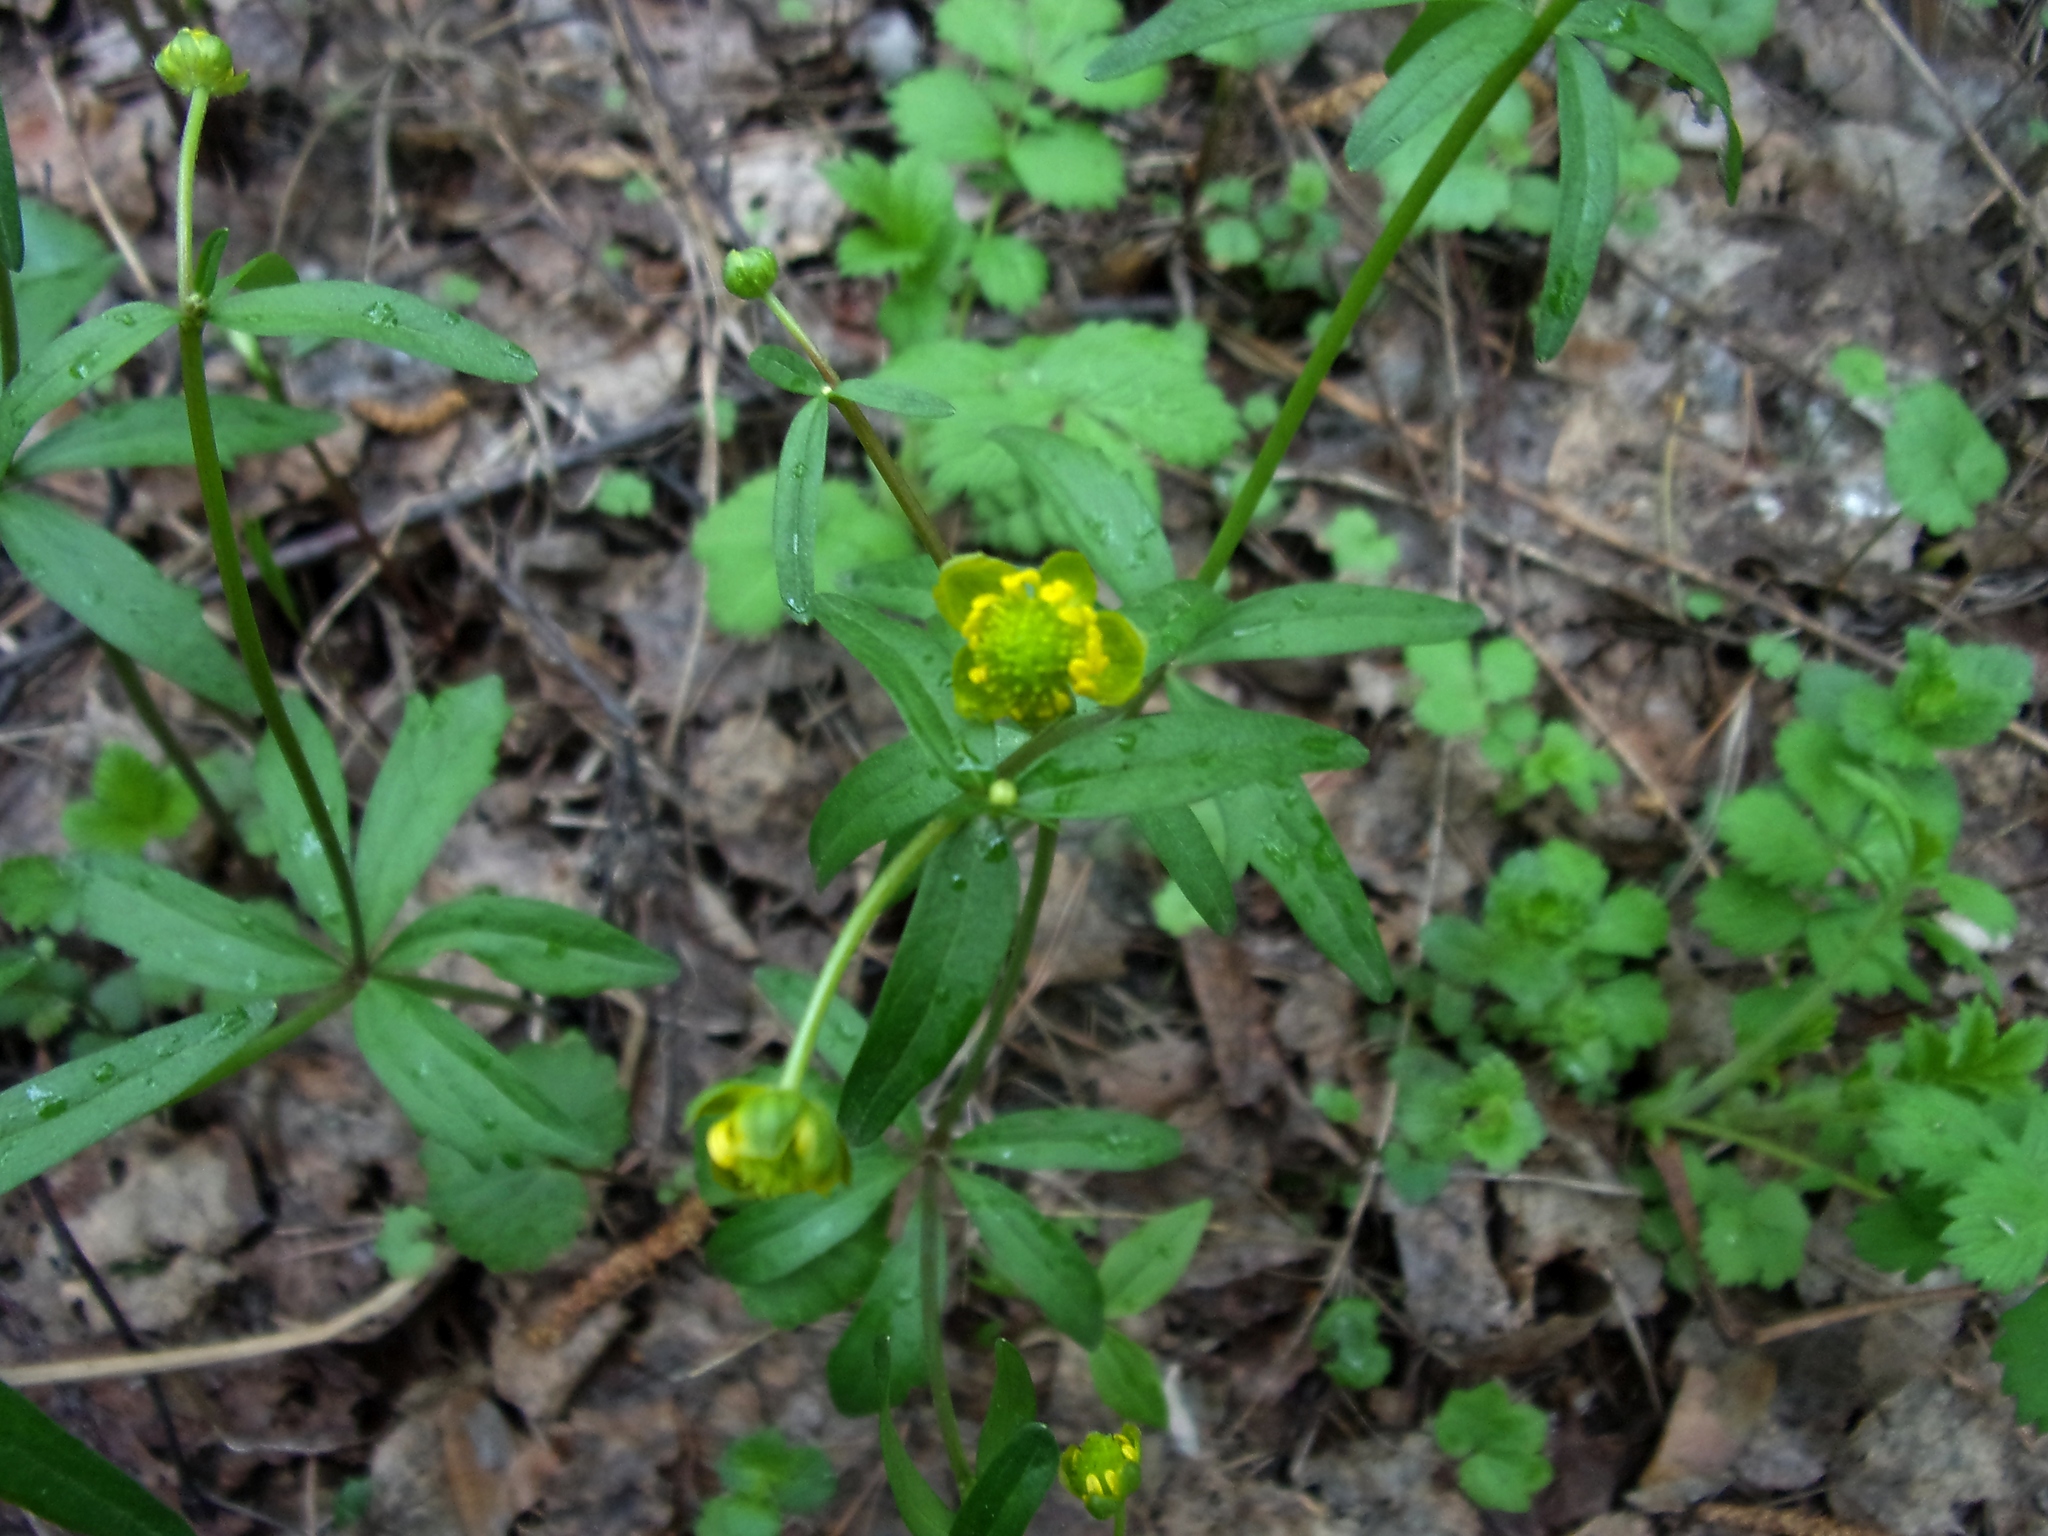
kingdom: Plantae
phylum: Tracheophyta
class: Magnoliopsida
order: Ranunculales
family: Ranunculaceae
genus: Ranunculus
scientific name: Ranunculus monophyllus
